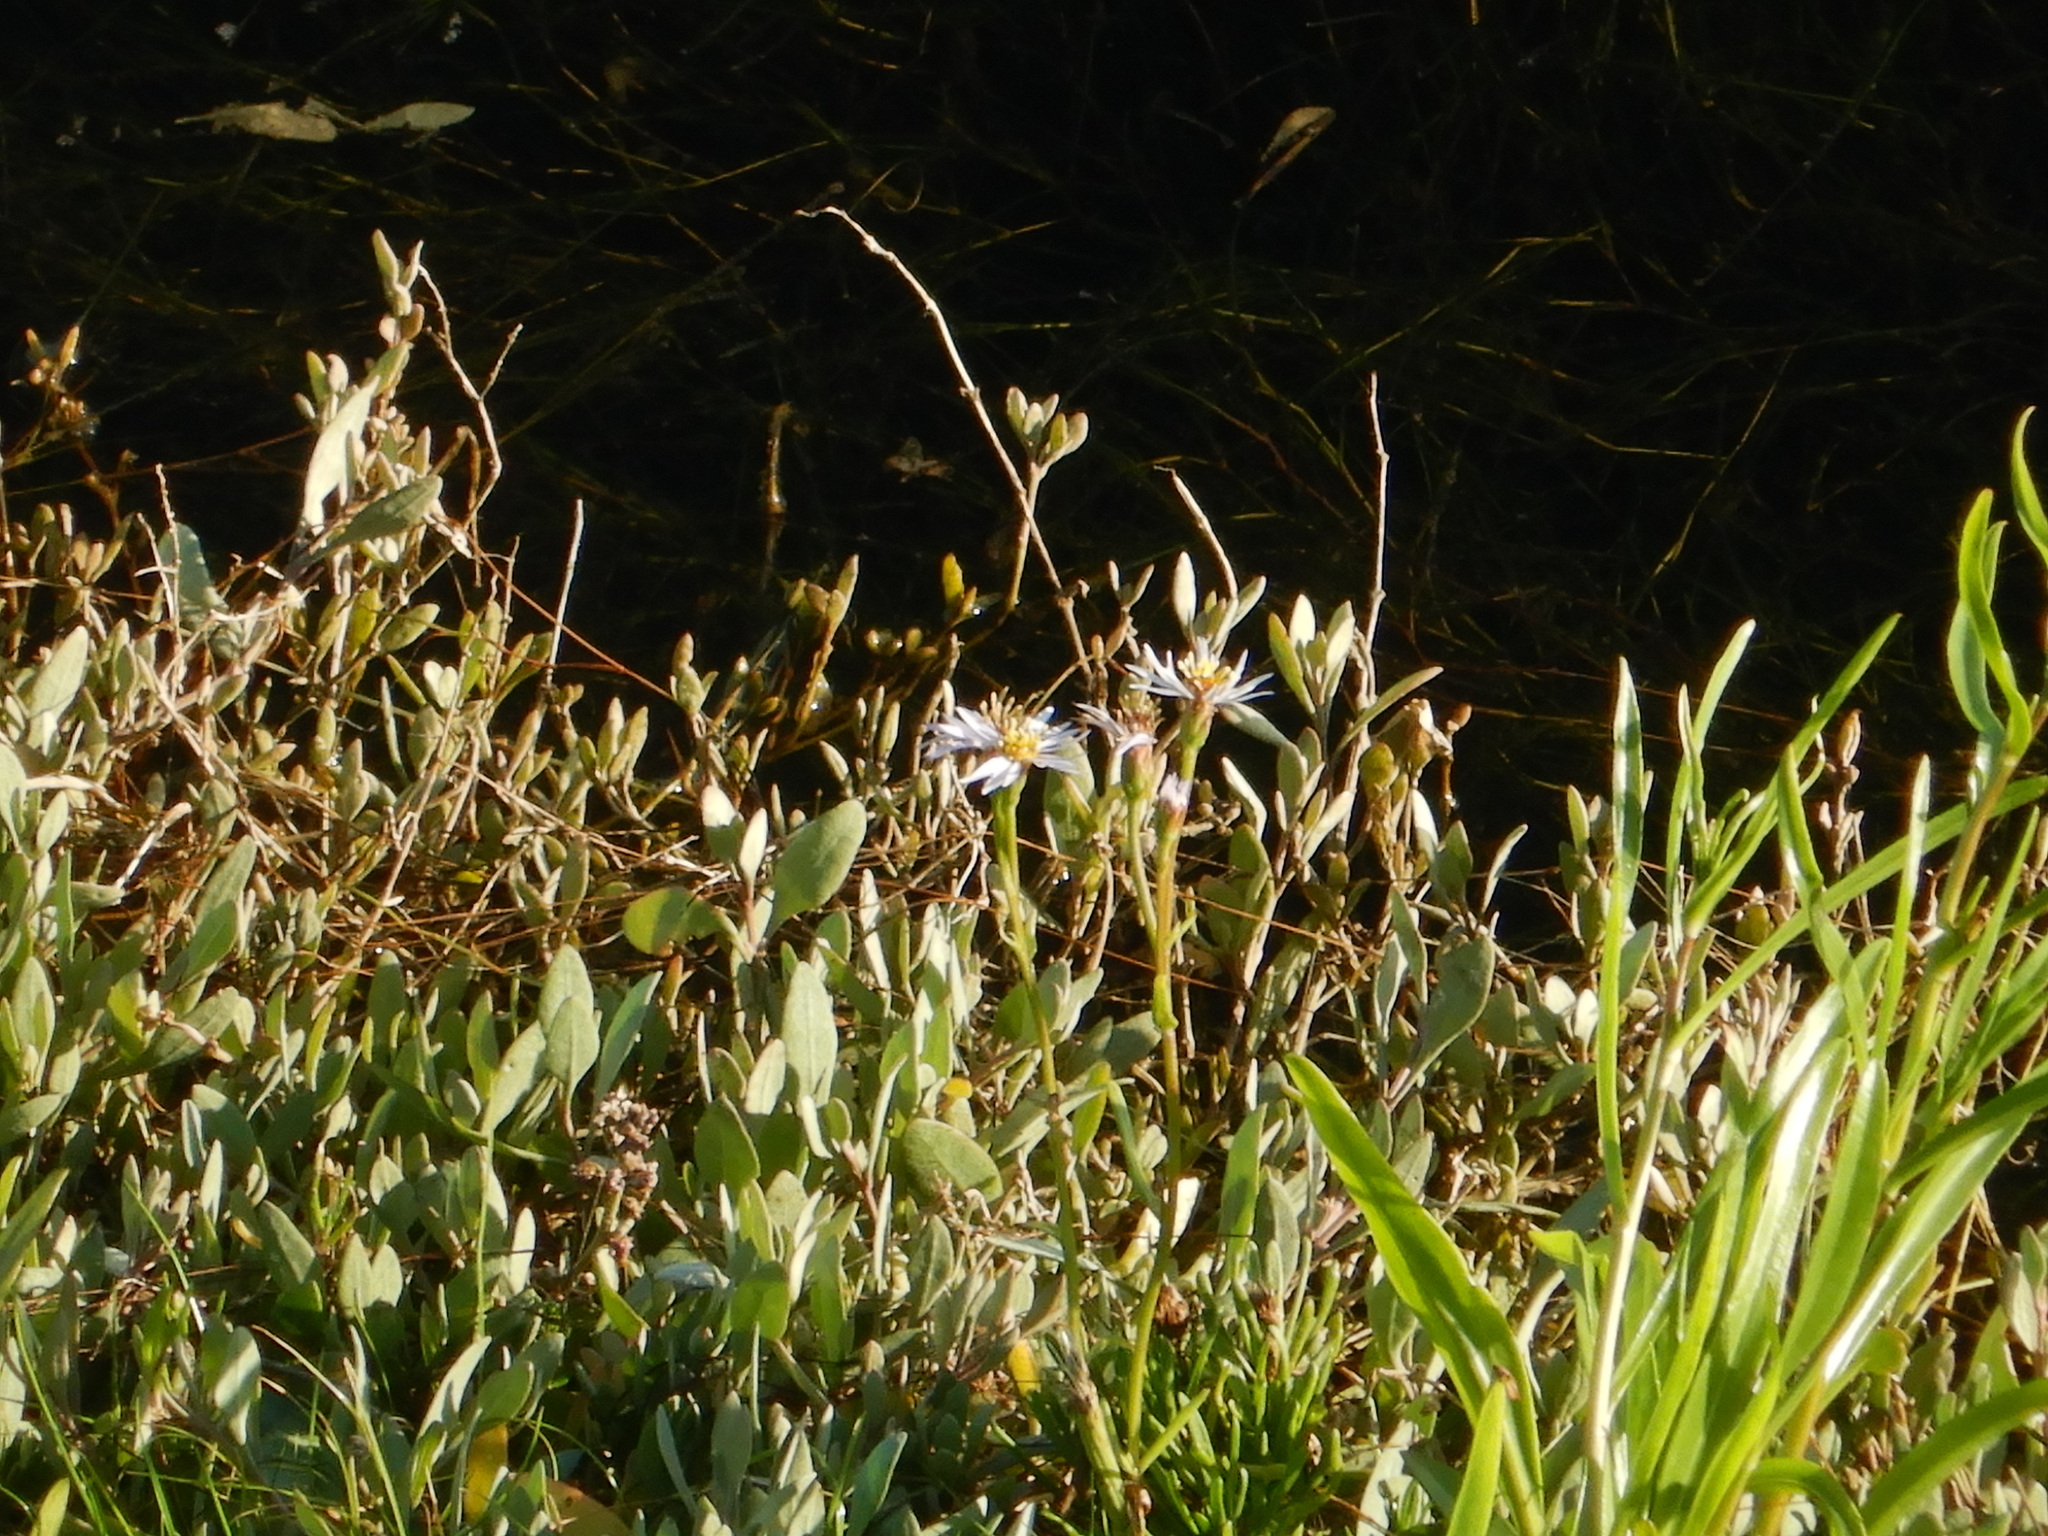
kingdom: Plantae
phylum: Tracheophyta
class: Magnoliopsida
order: Asterales
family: Asteraceae
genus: Tripolium
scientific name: Tripolium pannonicum
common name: Sea aster
